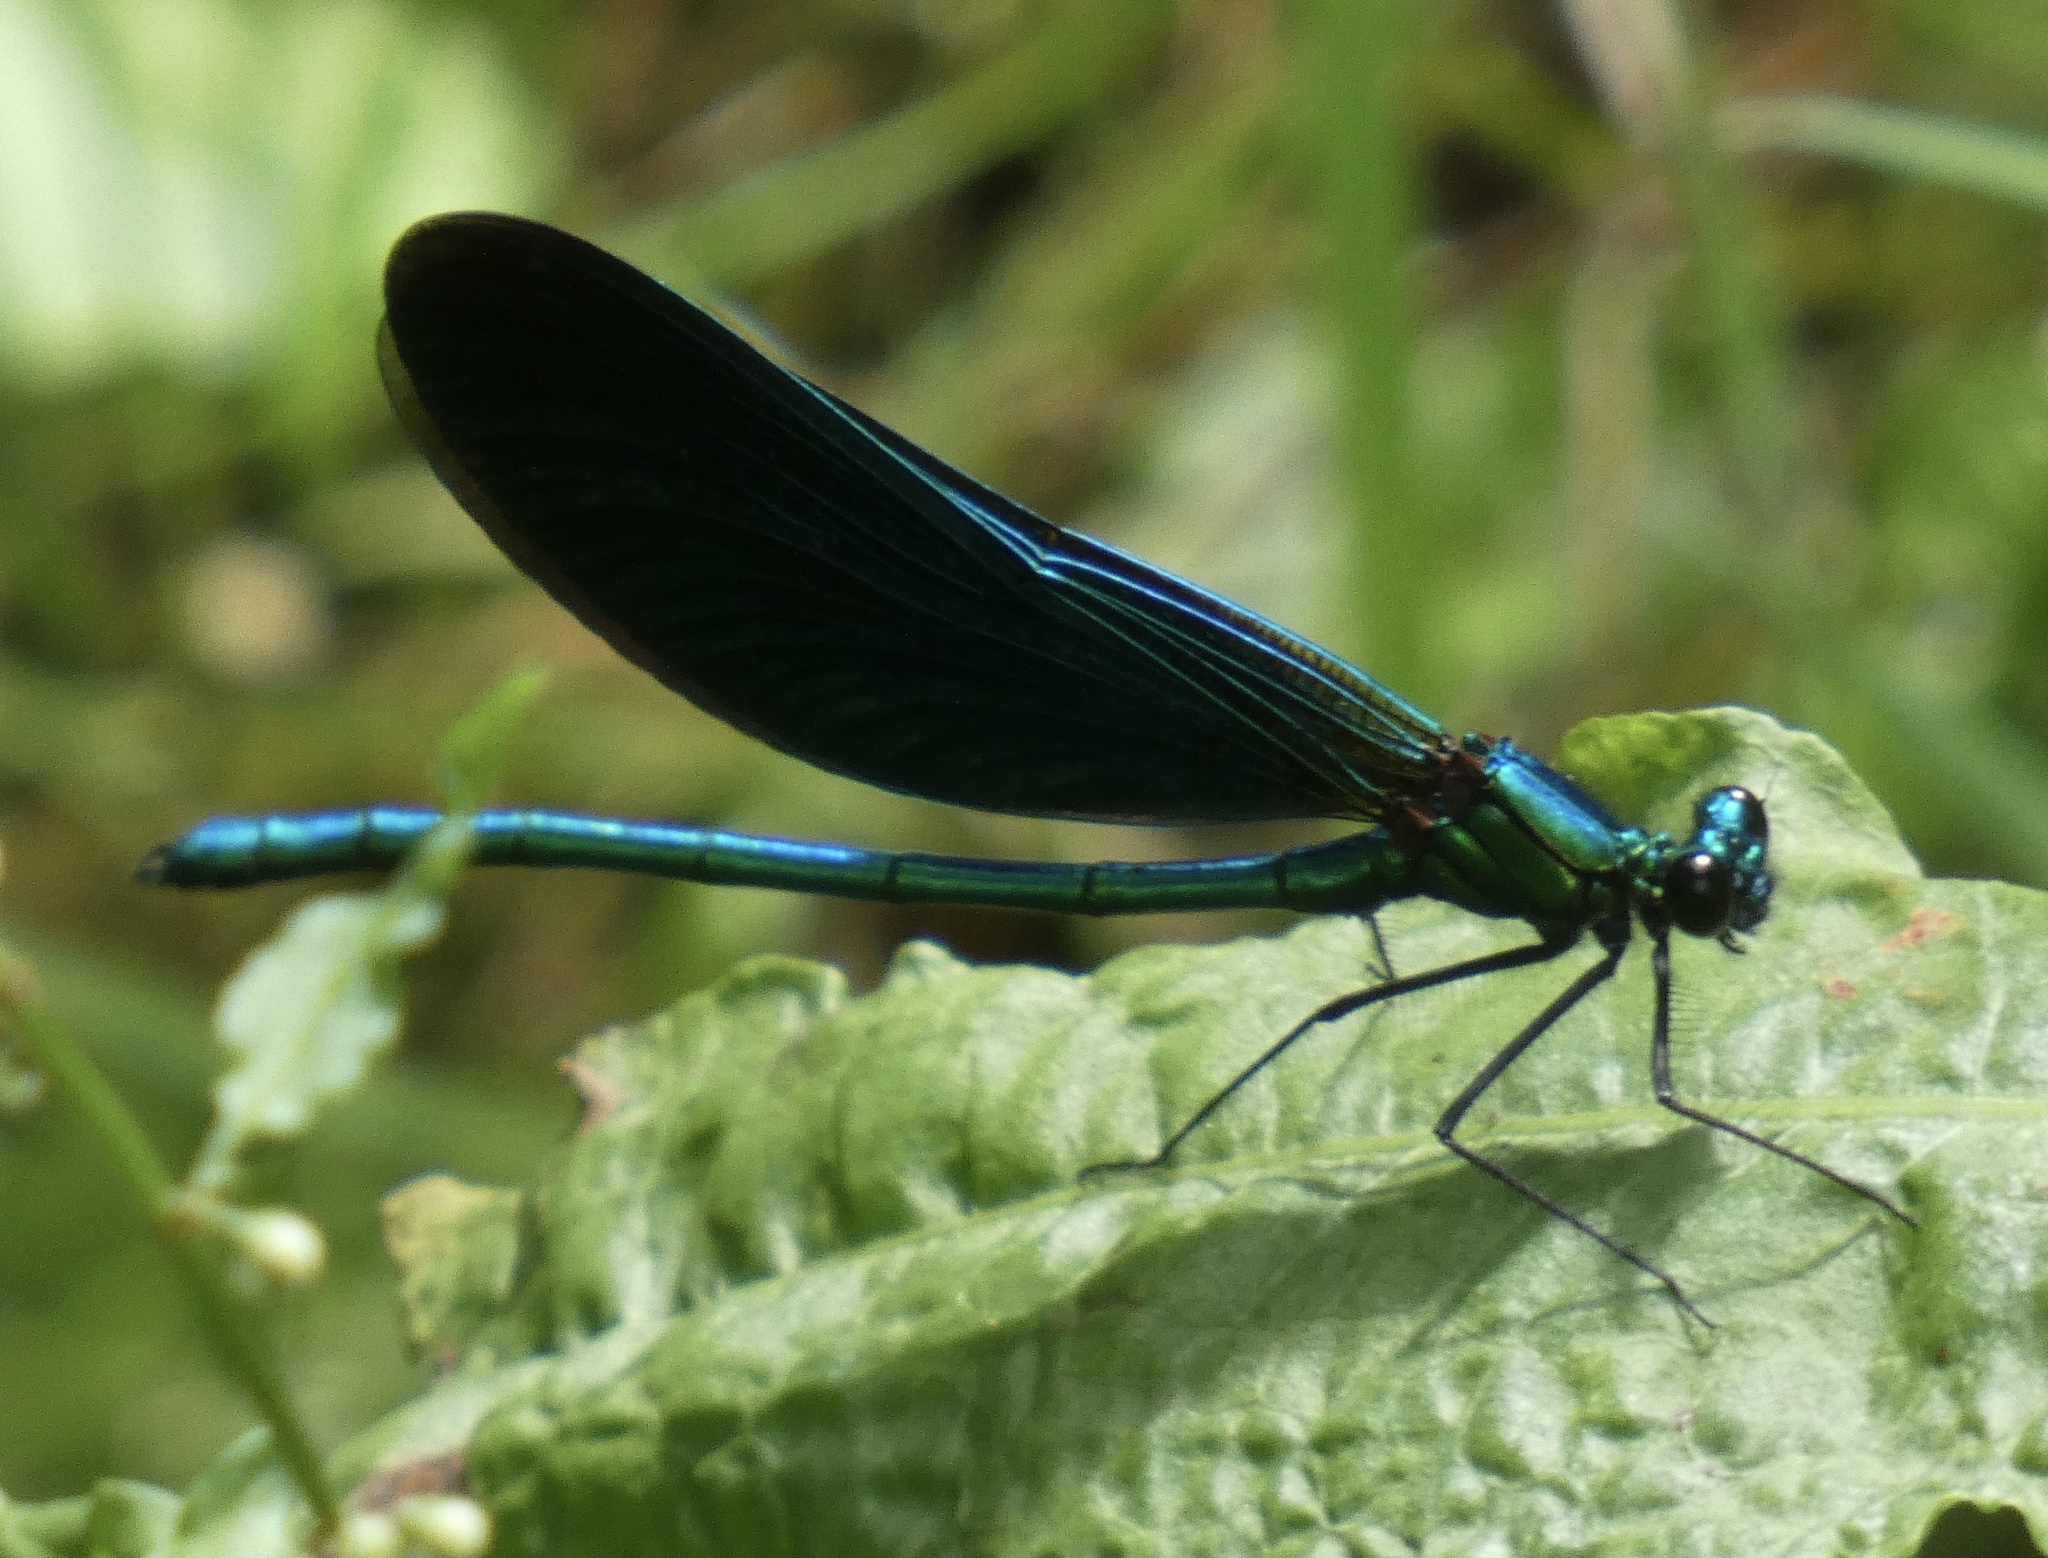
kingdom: Animalia
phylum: Arthropoda
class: Insecta
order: Odonata
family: Calopterygidae
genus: Calopteryx
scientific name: Calopteryx virgo
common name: Beautiful demoiselle
